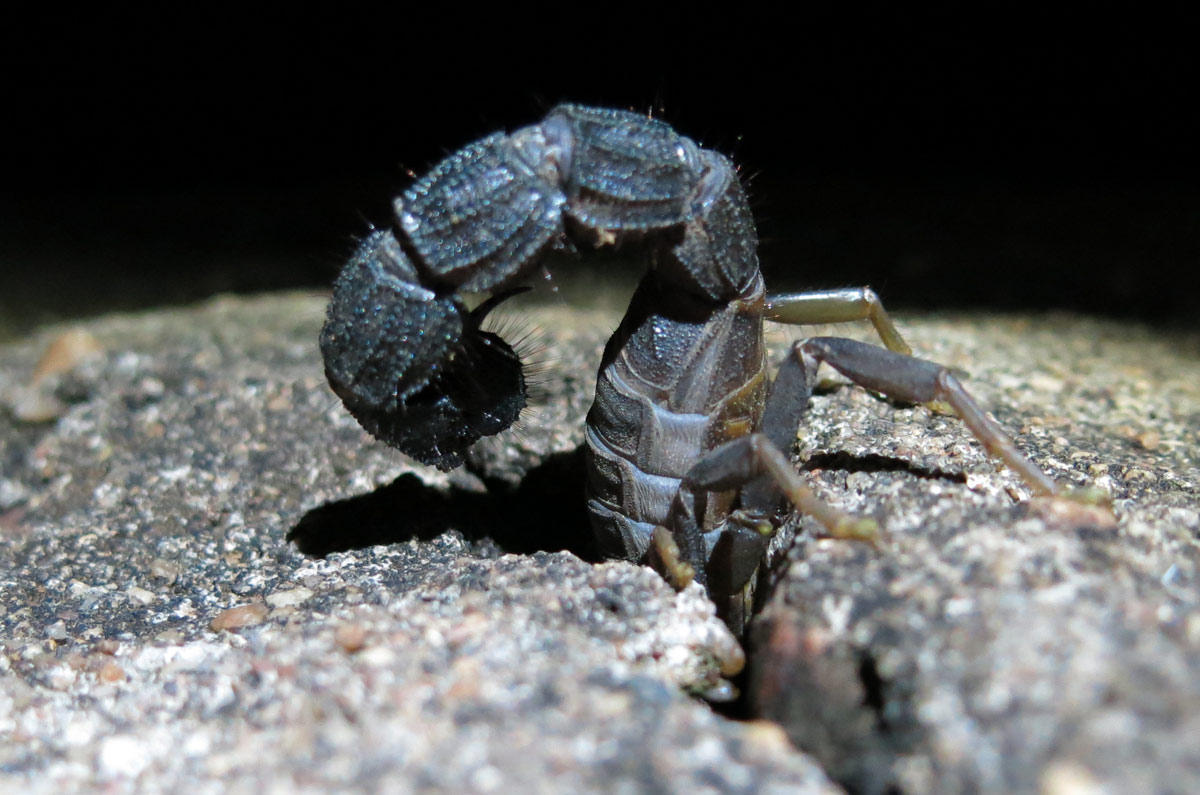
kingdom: Animalia
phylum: Arthropoda
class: Arachnida
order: Scorpiones
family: Buthidae
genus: Parabuthus
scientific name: Parabuthus transvaalicus
